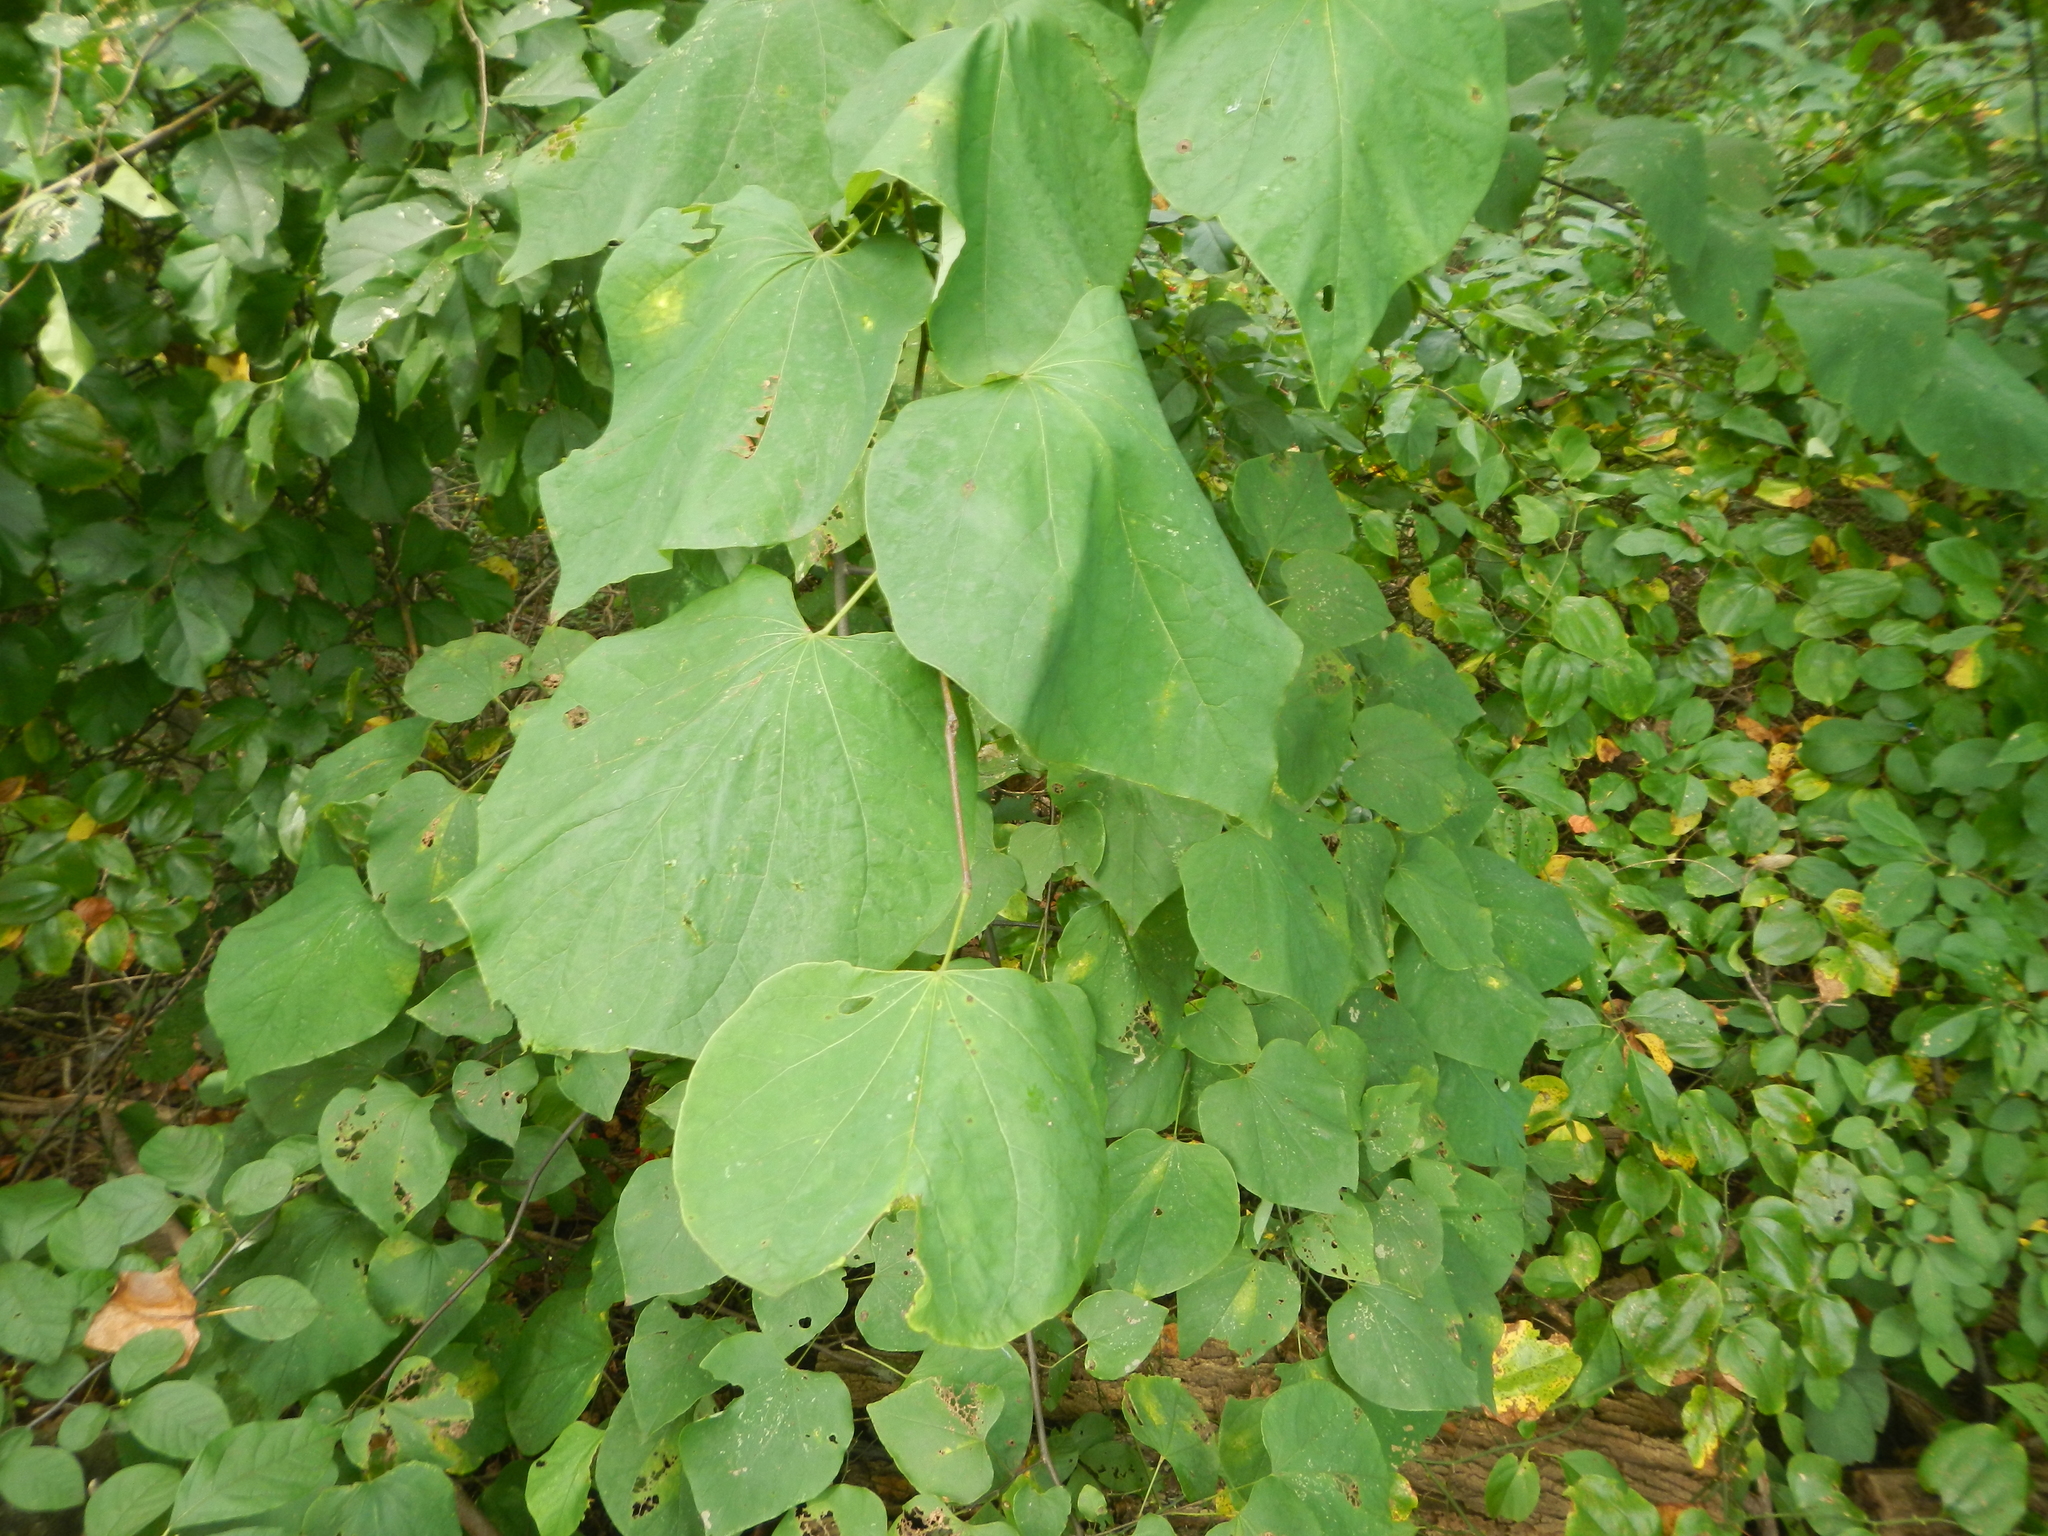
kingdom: Plantae
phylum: Tracheophyta
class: Magnoliopsida
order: Fabales
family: Fabaceae
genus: Cercis
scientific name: Cercis canadensis
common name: Eastern redbud
